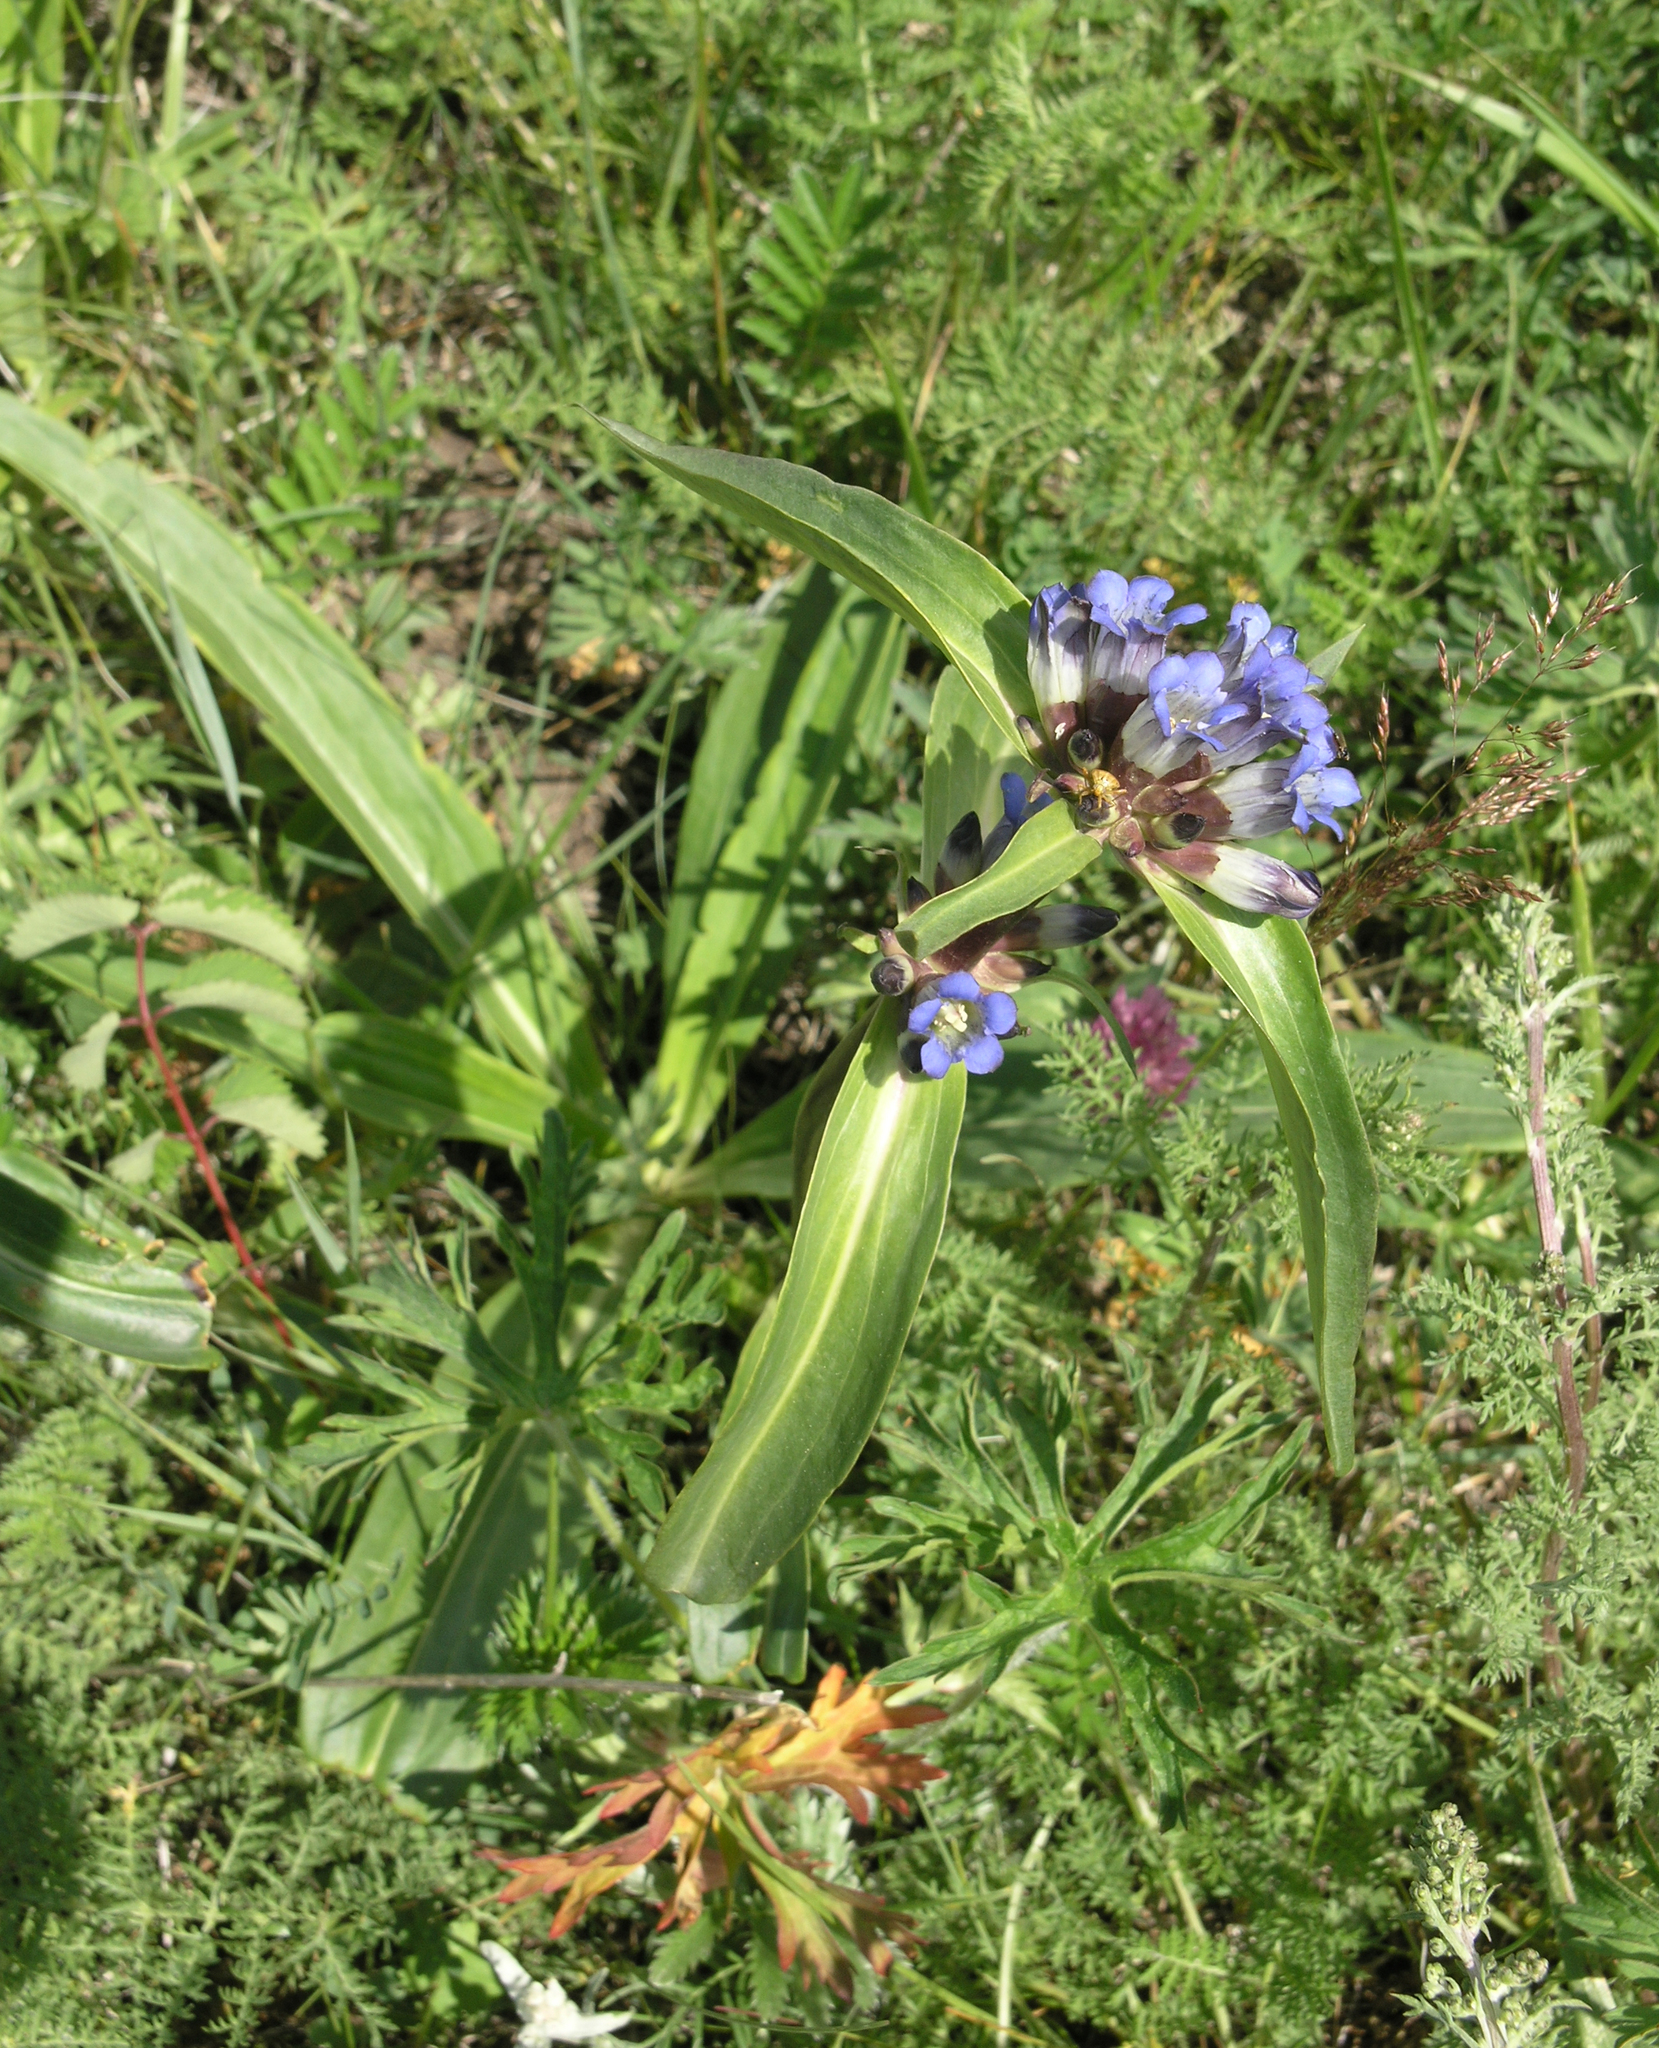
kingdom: Plantae
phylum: Tracheophyta
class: Magnoliopsida
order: Gentianales
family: Gentianaceae
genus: Gentiana
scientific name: Gentiana macrophylla
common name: Large-leaf gentian
